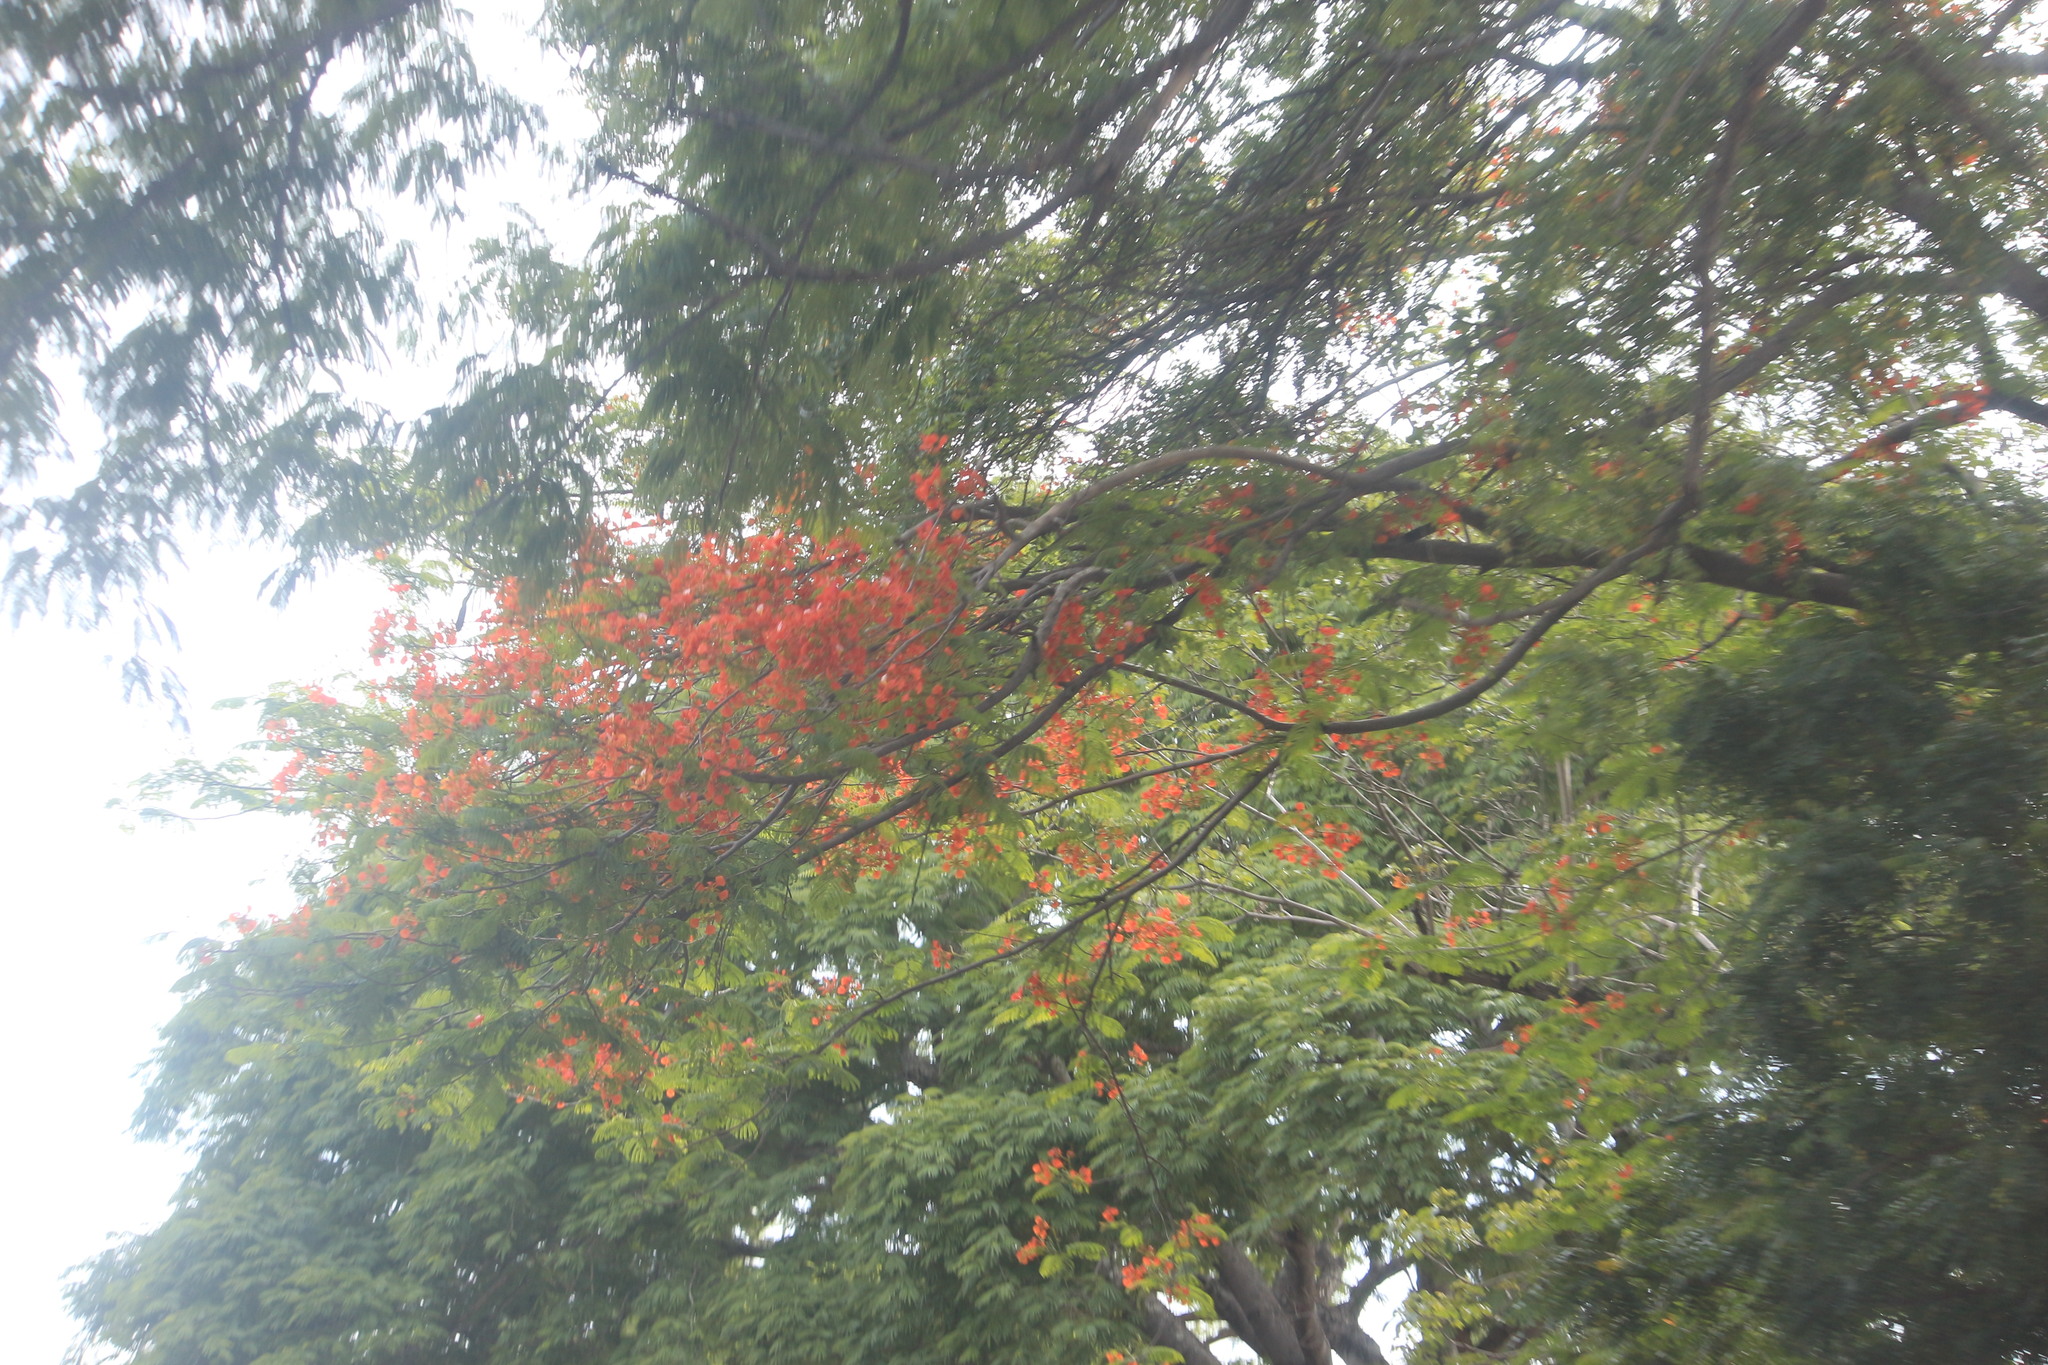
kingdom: Plantae
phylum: Tracheophyta
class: Magnoliopsida
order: Fabales
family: Fabaceae
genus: Delonix
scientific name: Delonix regia
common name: Royal poinciana
